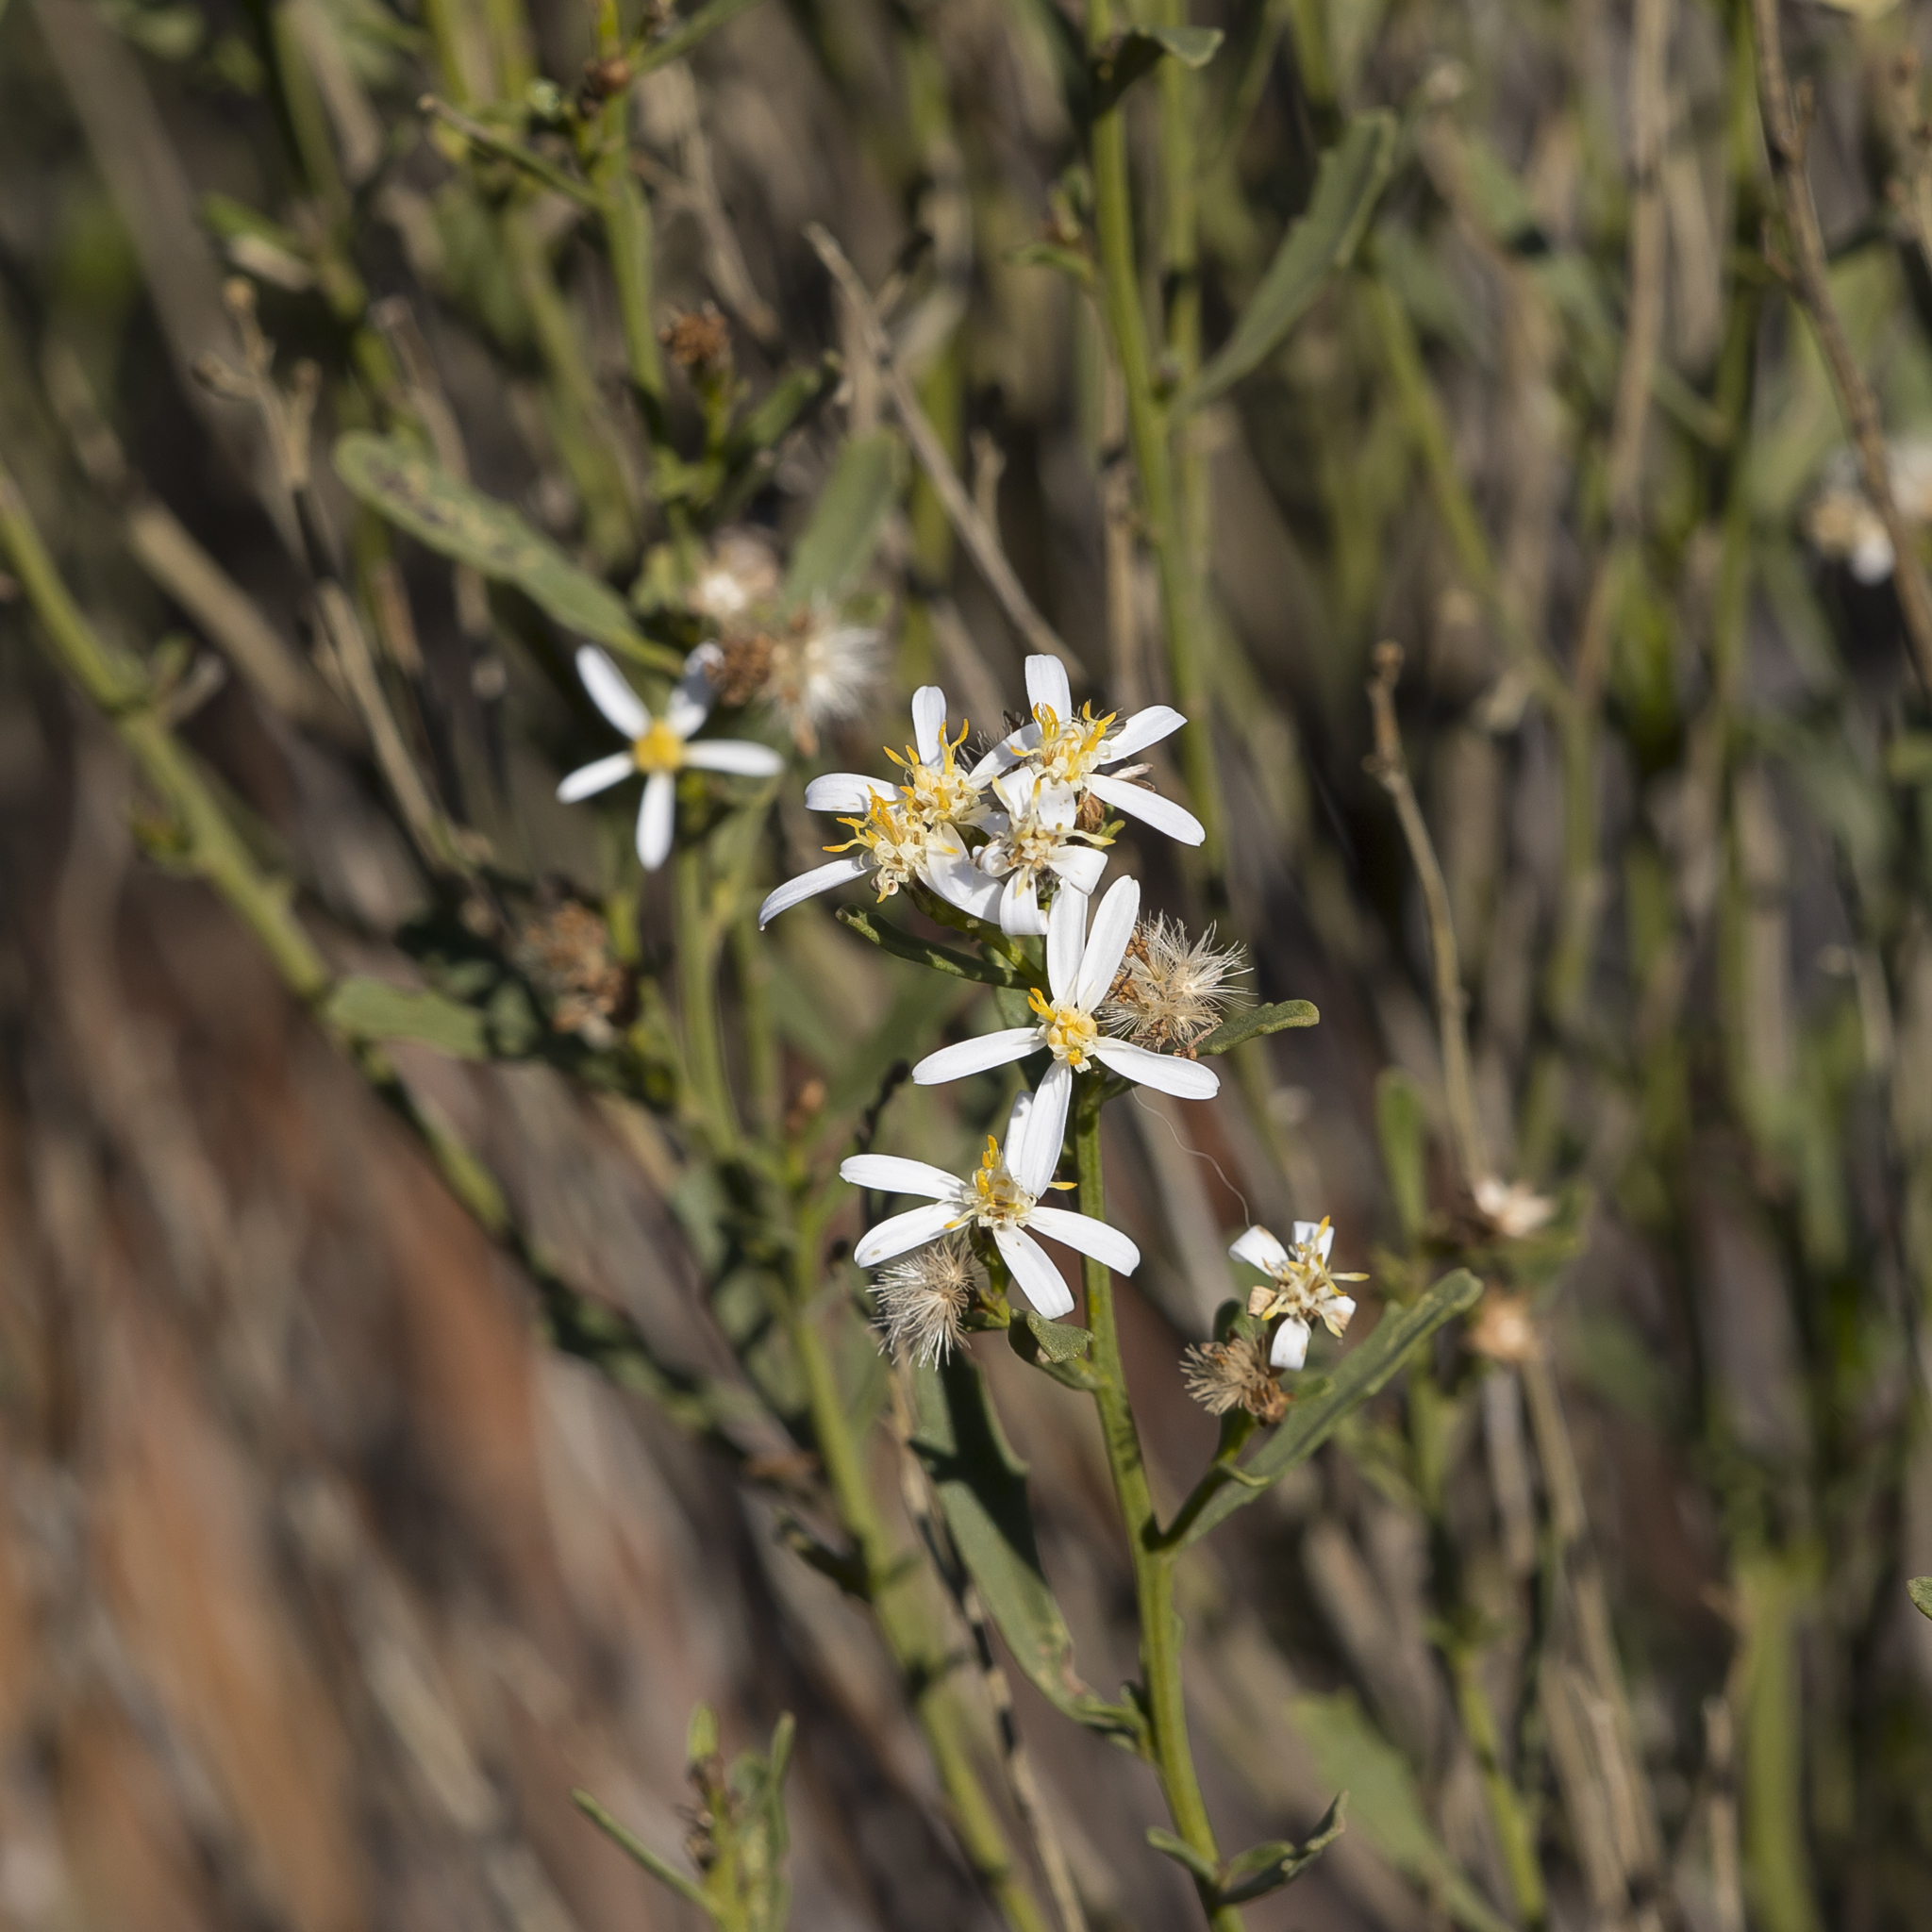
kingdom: Plantae
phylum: Tracheophyta
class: Magnoliopsida
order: Asterales
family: Asteraceae
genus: Olearia
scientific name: Olearia decurrens
